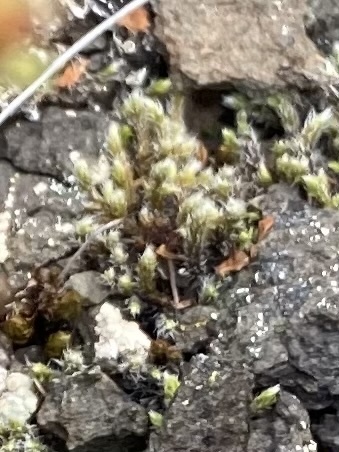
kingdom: Plantae
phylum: Bryophyta
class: Bryopsida
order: Grimmiales
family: Grimmiaceae
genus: Racomitrium
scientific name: Racomitrium lanuginosum
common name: Hoary rock moss
